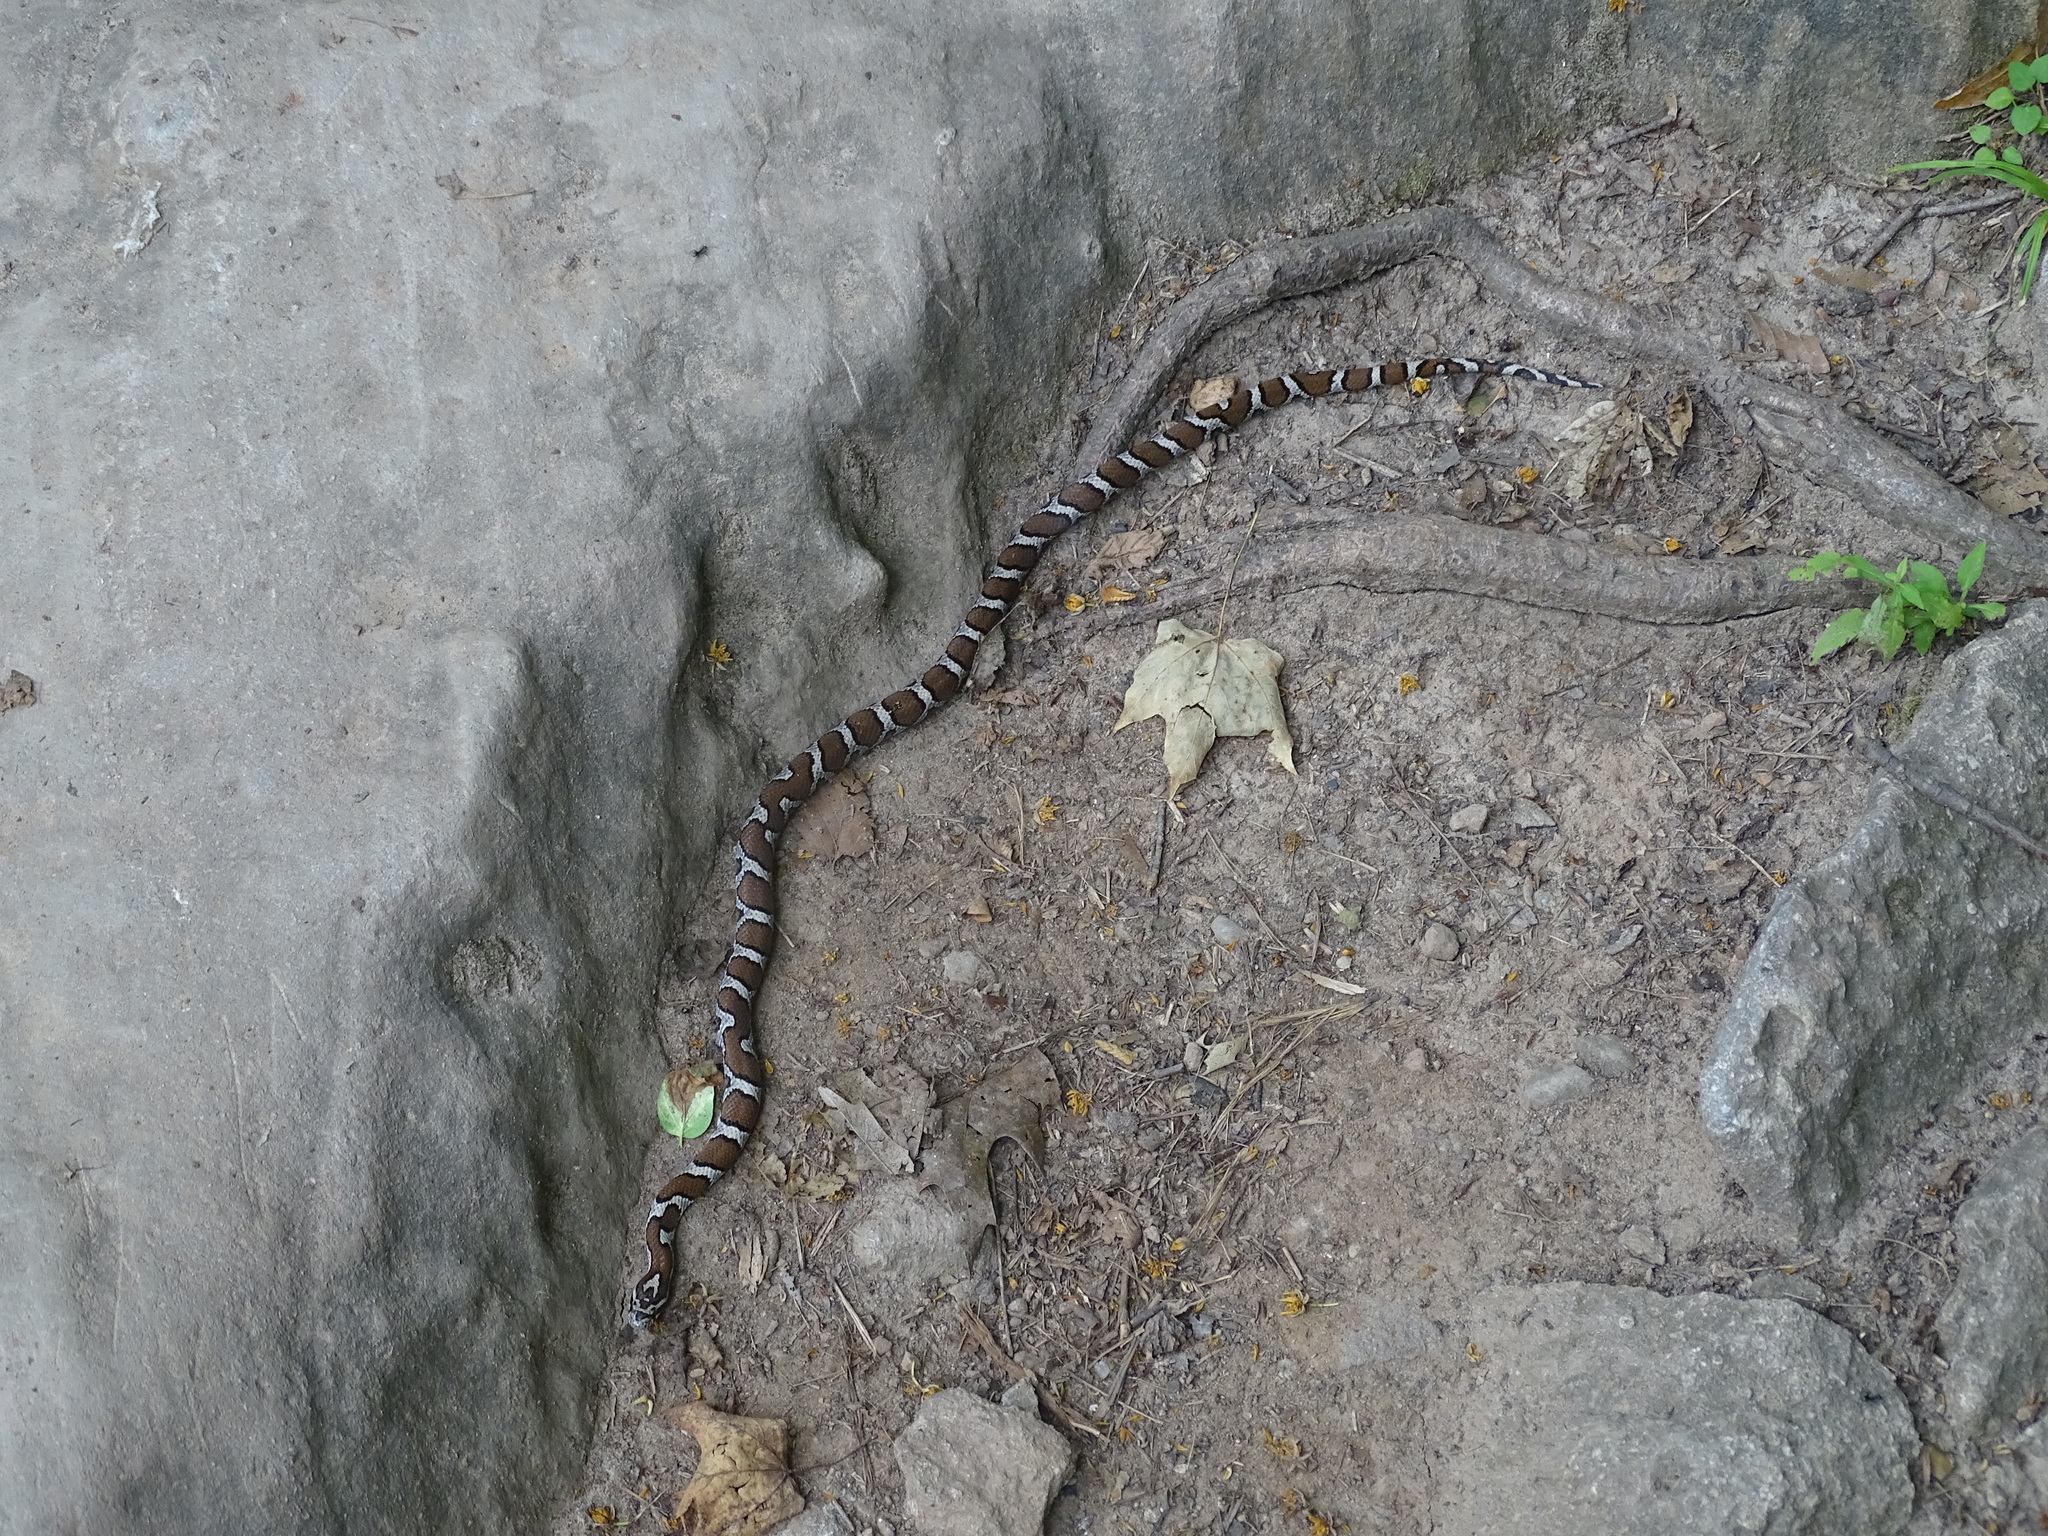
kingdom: Animalia
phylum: Chordata
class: Squamata
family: Colubridae
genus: Lampropeltis
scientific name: Lampropeltis triangulum
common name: Eastern milksnake
